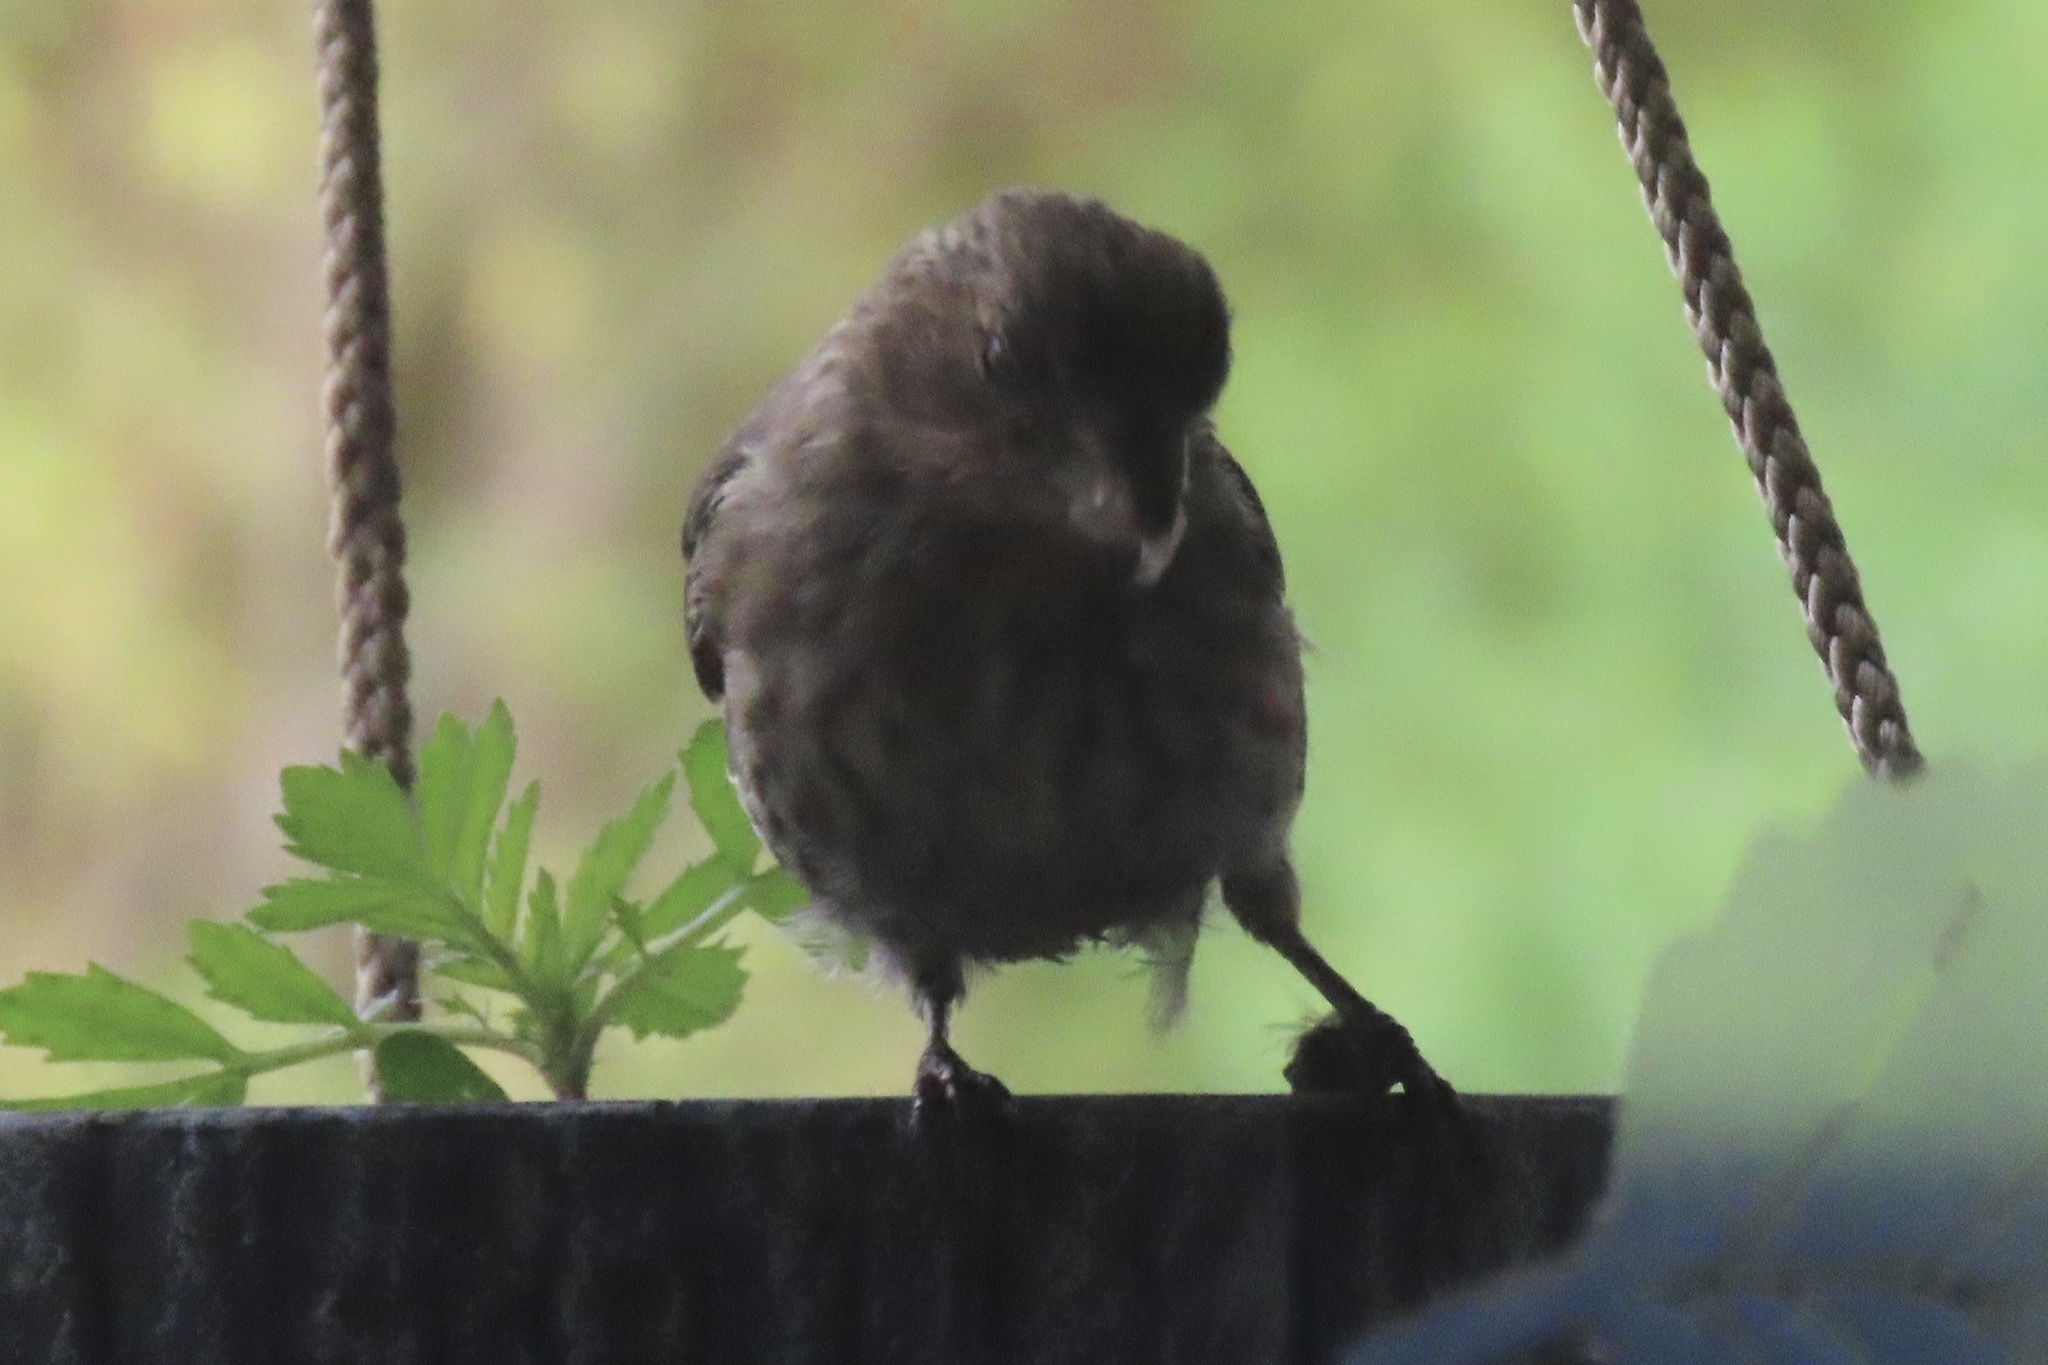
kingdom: Animalia
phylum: Chordata
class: Aves
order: Passeriformes
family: Fringillidae
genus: Haemorhous
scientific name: Haemorhous mexicanus
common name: House finch
